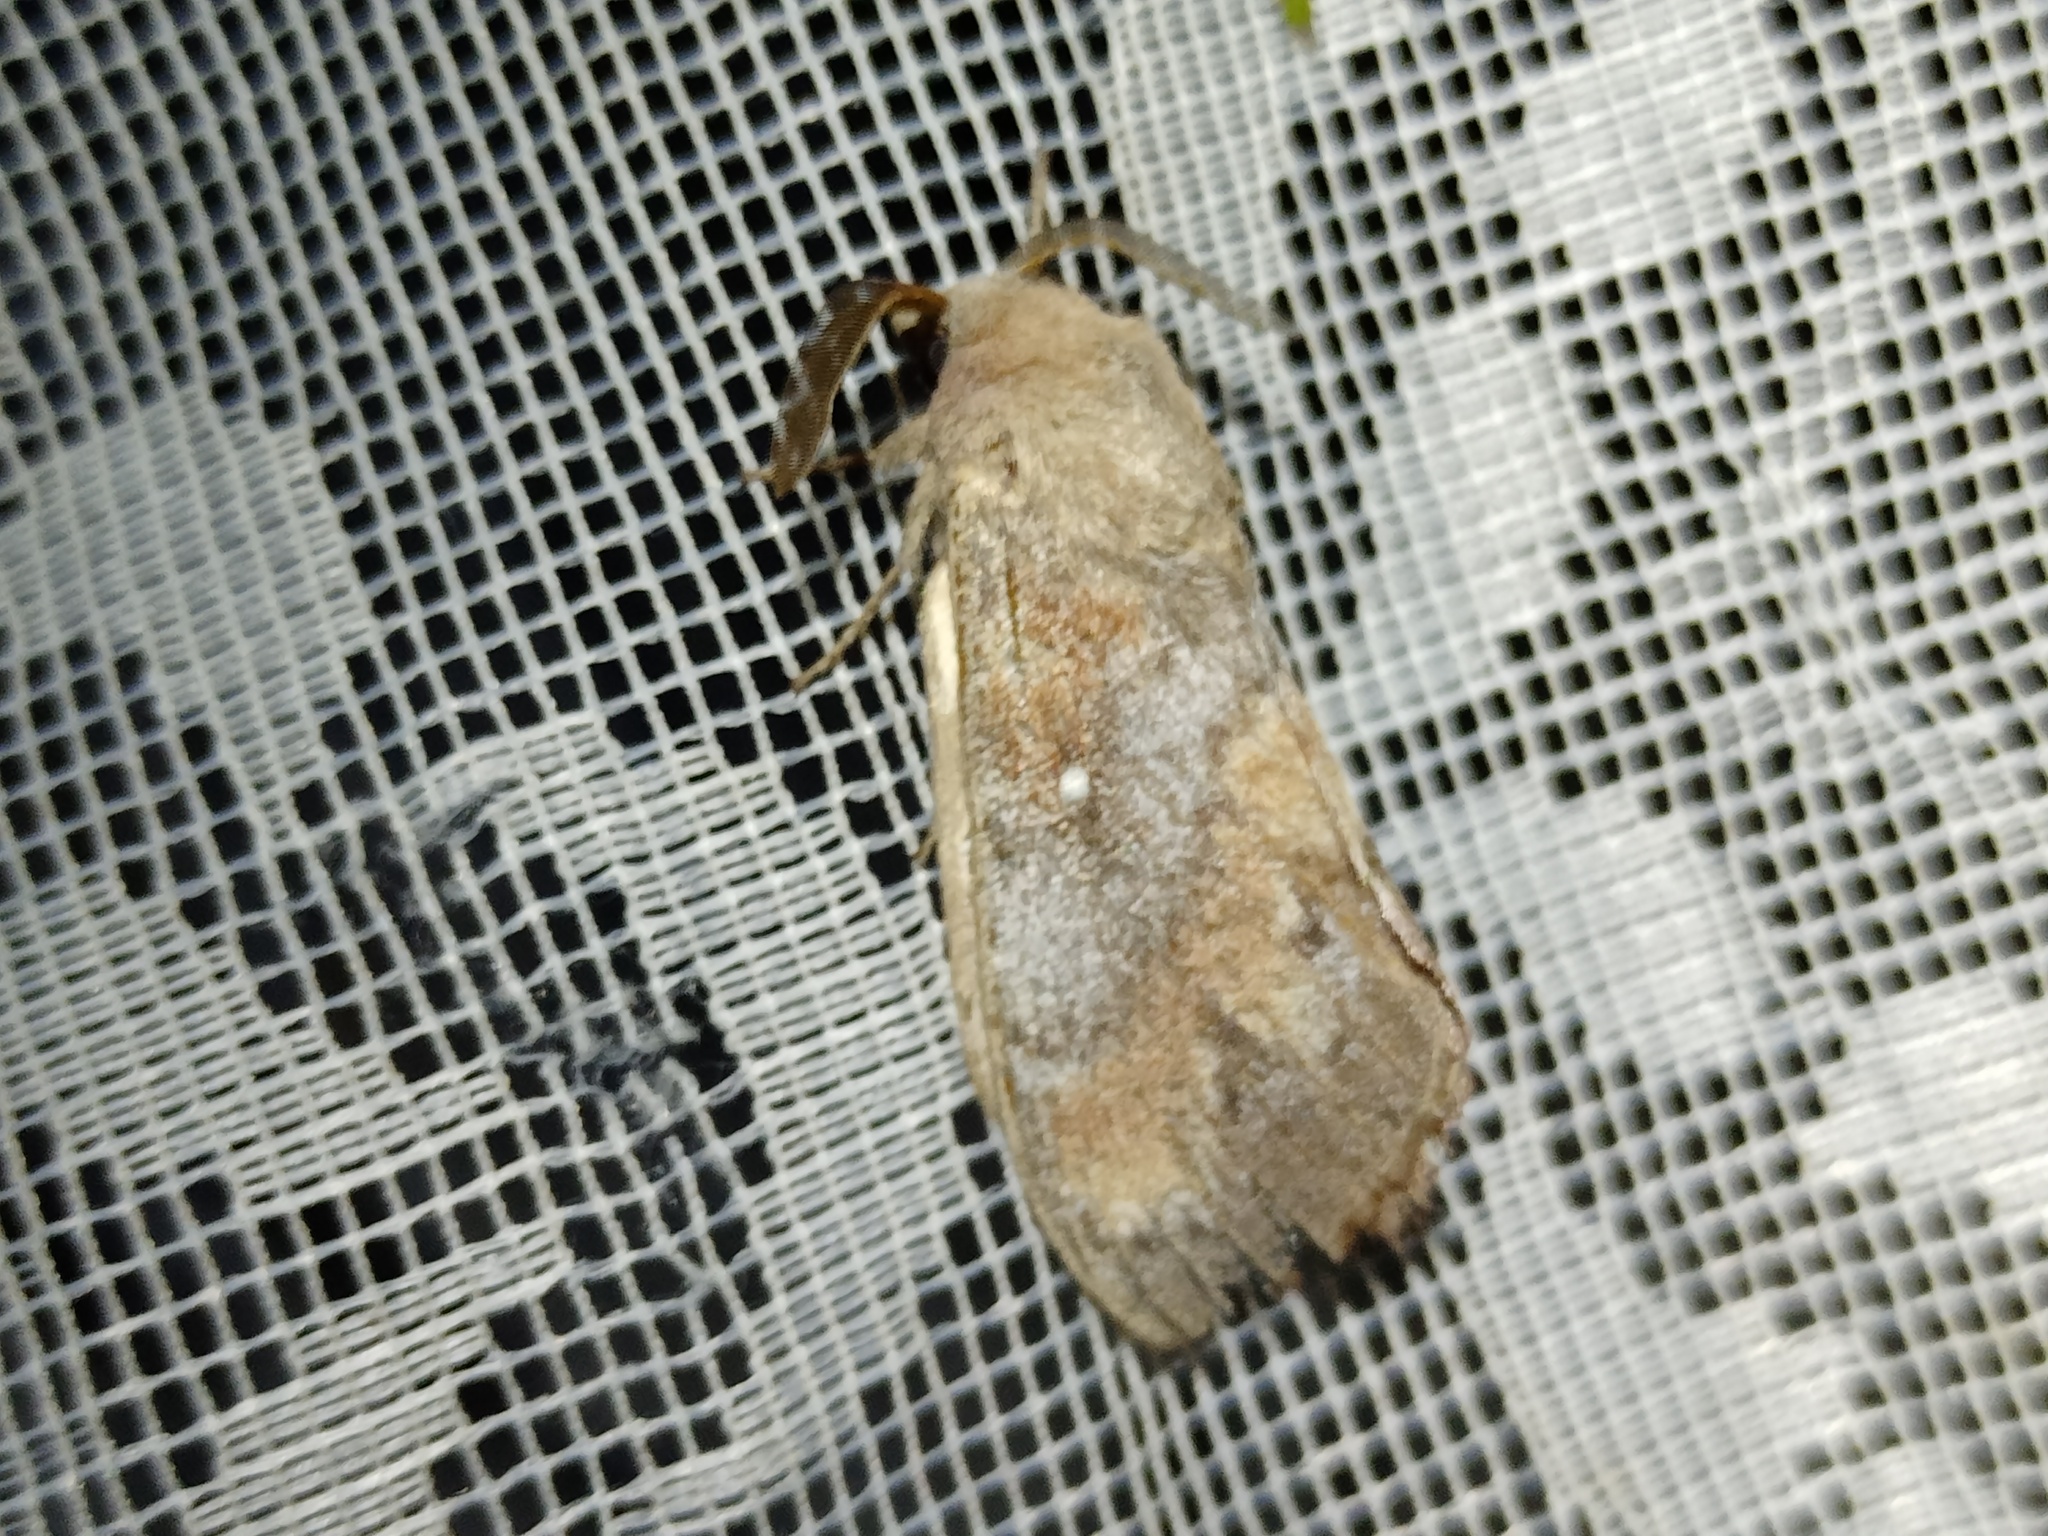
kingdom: Animalia
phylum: Arthropoda
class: Insecta
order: Lepidoptera
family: Lasiocampidae
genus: Dendrolimus
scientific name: Dendrolimus pini
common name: Pine-tree lappet
